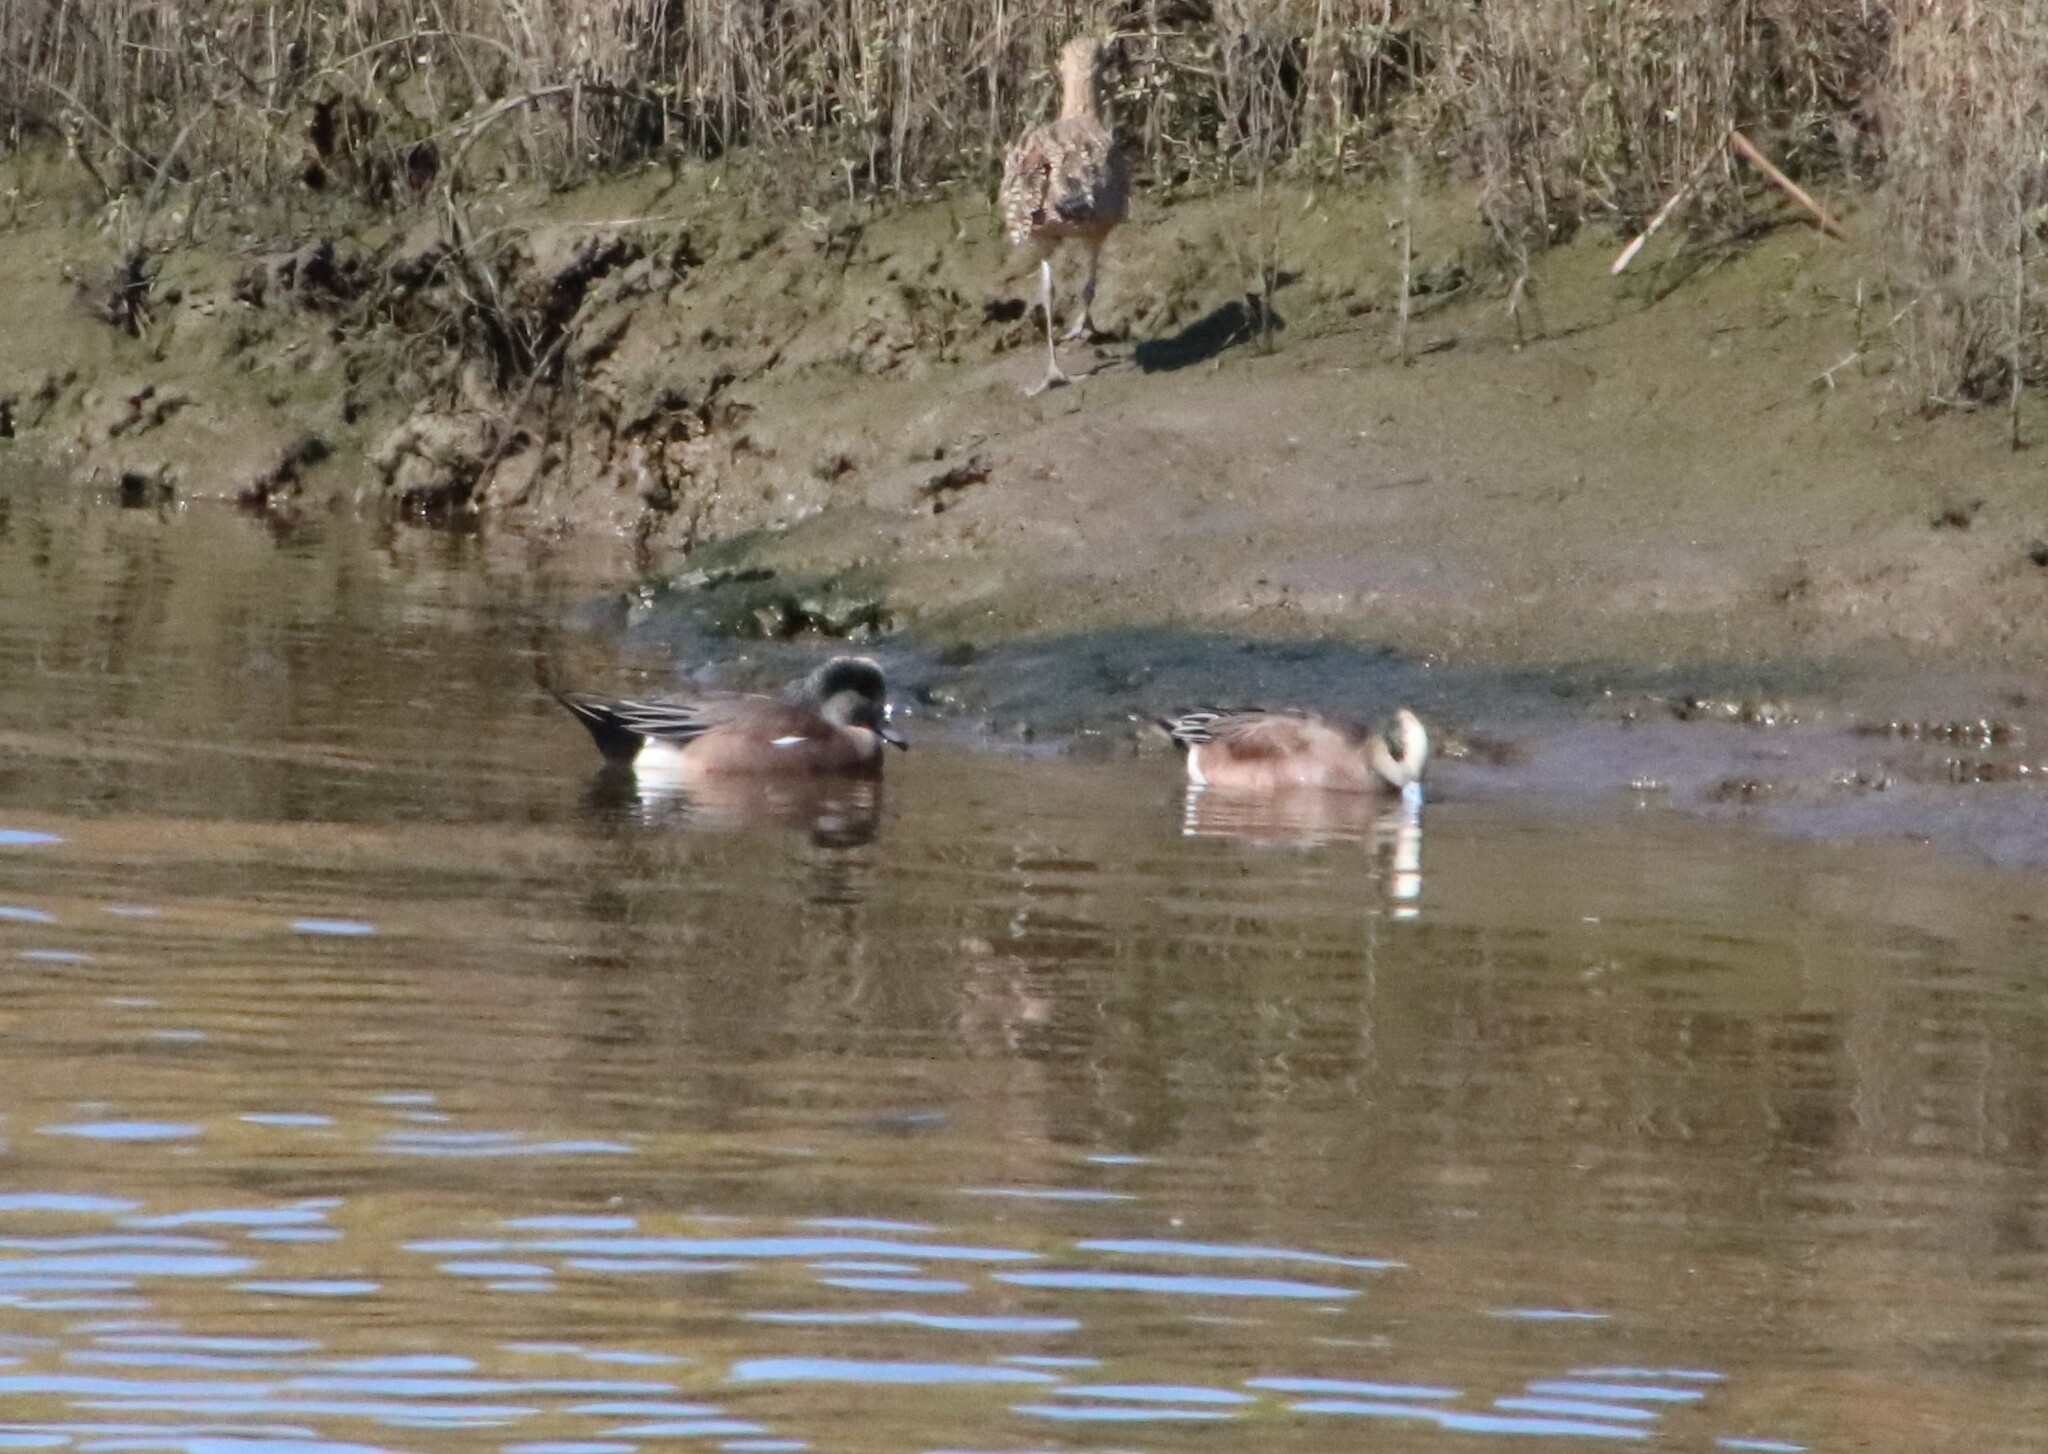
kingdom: Animalia
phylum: Chordata
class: Aves
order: Anseriformes
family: Anatidae
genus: Mareca
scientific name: Mareca americana
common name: American wigeon
